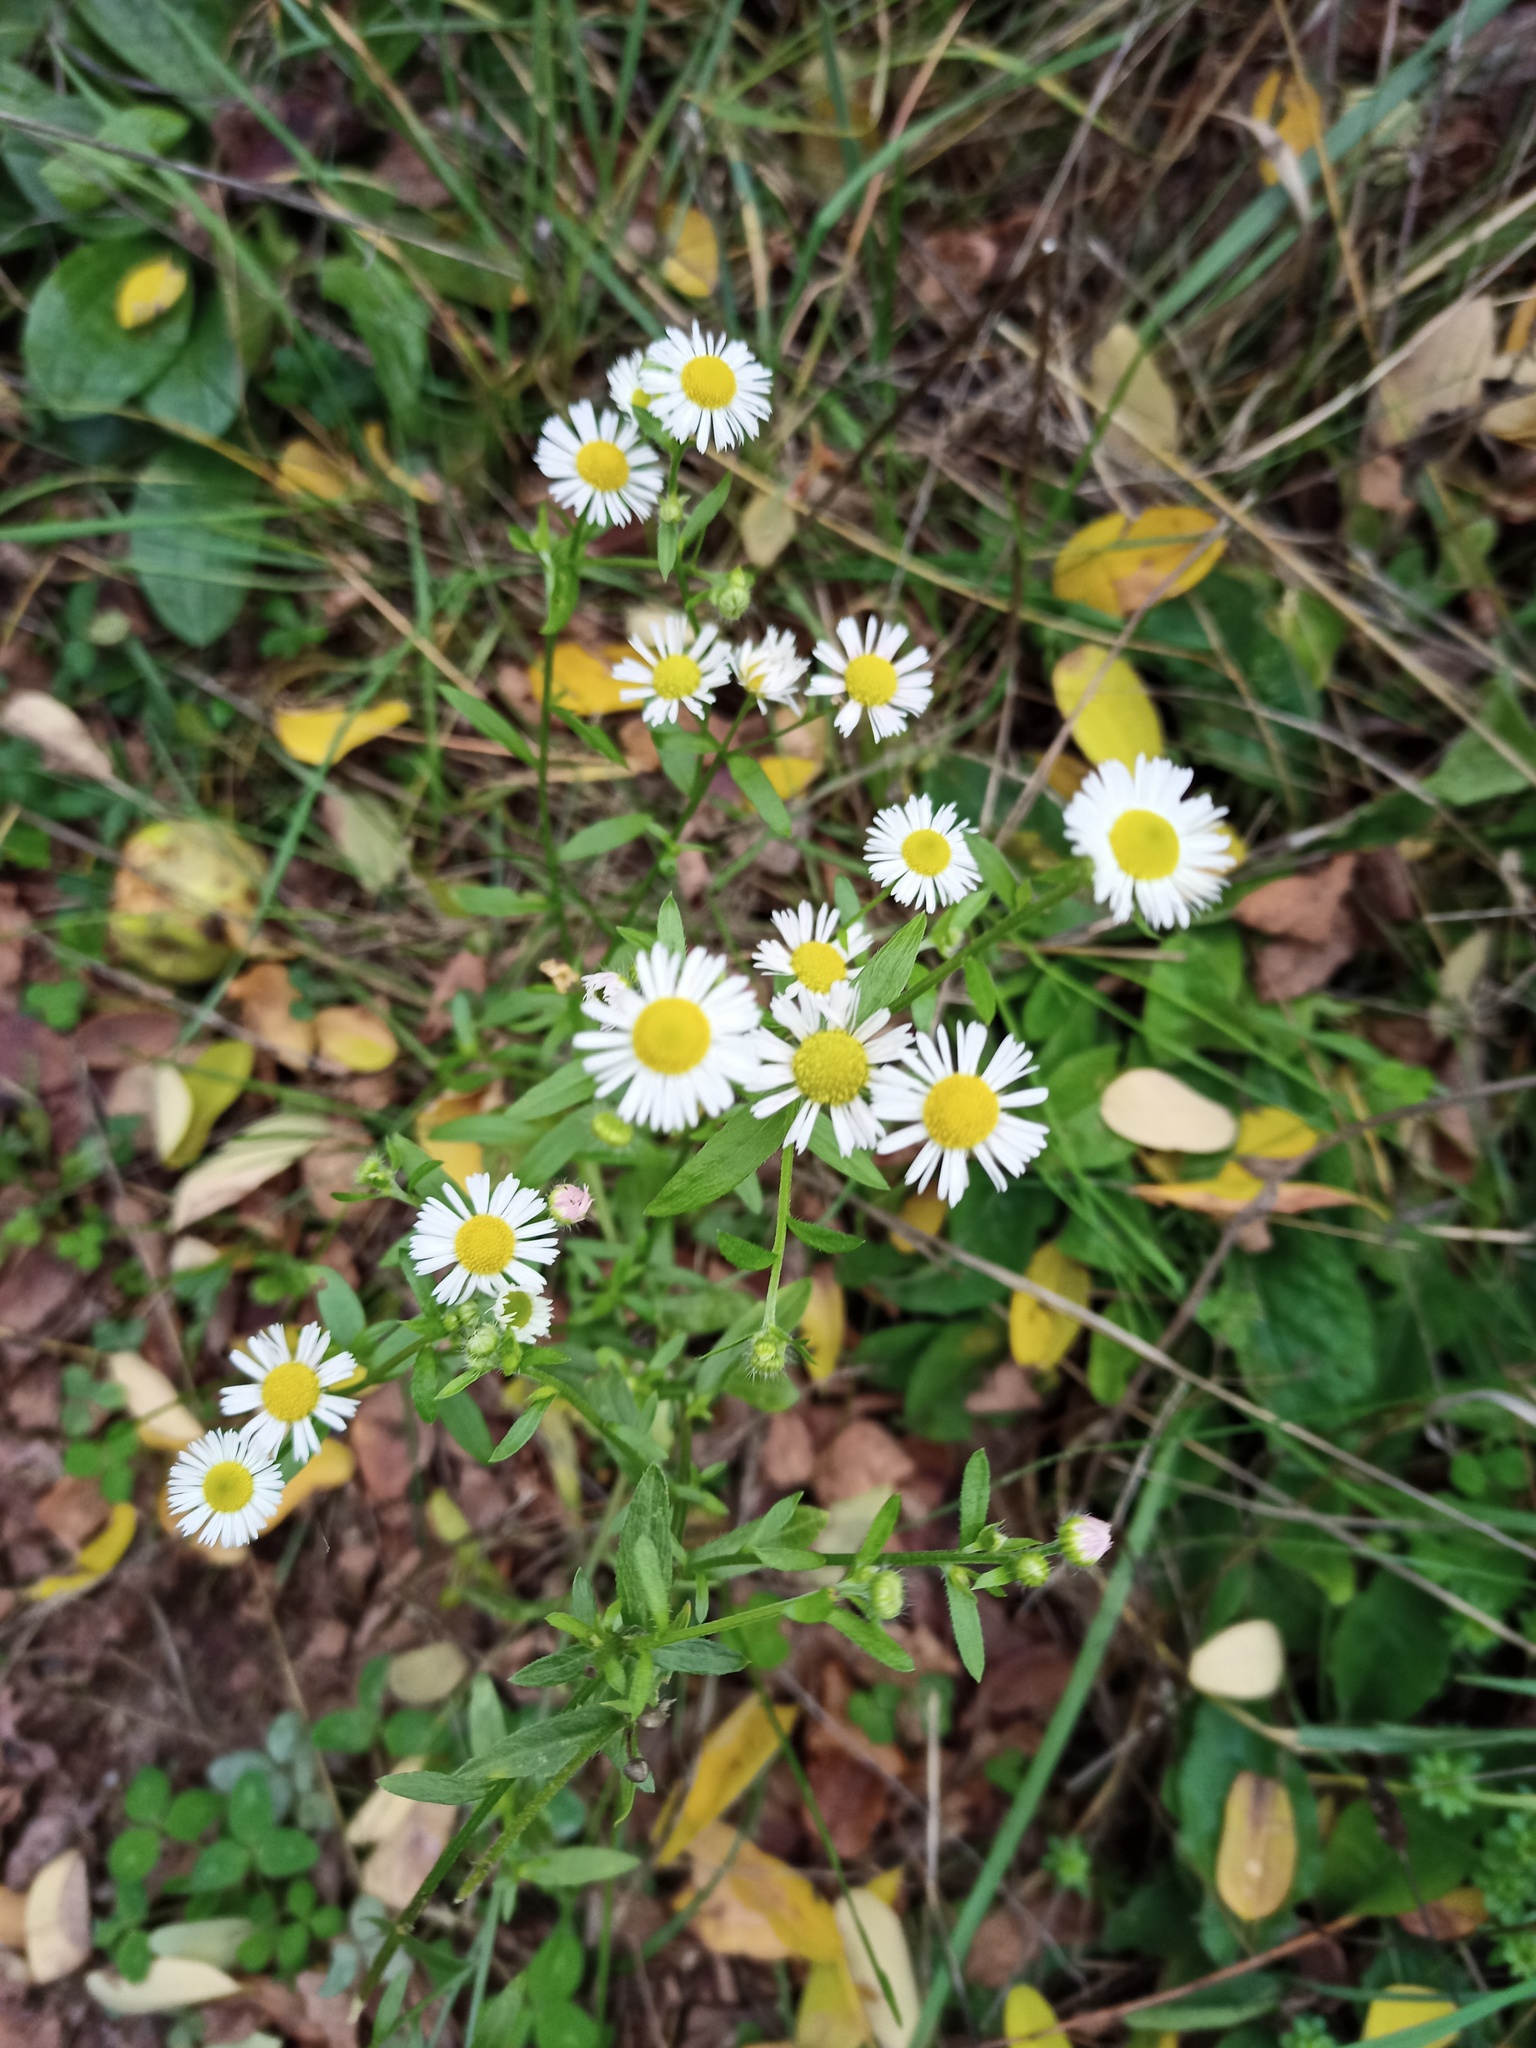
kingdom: Plantae
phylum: Tracheophyta
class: Magnoliopsida
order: Asterales
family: Asteraceae
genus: Erigeron
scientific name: Erigeron annuus
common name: Tall fleabane
